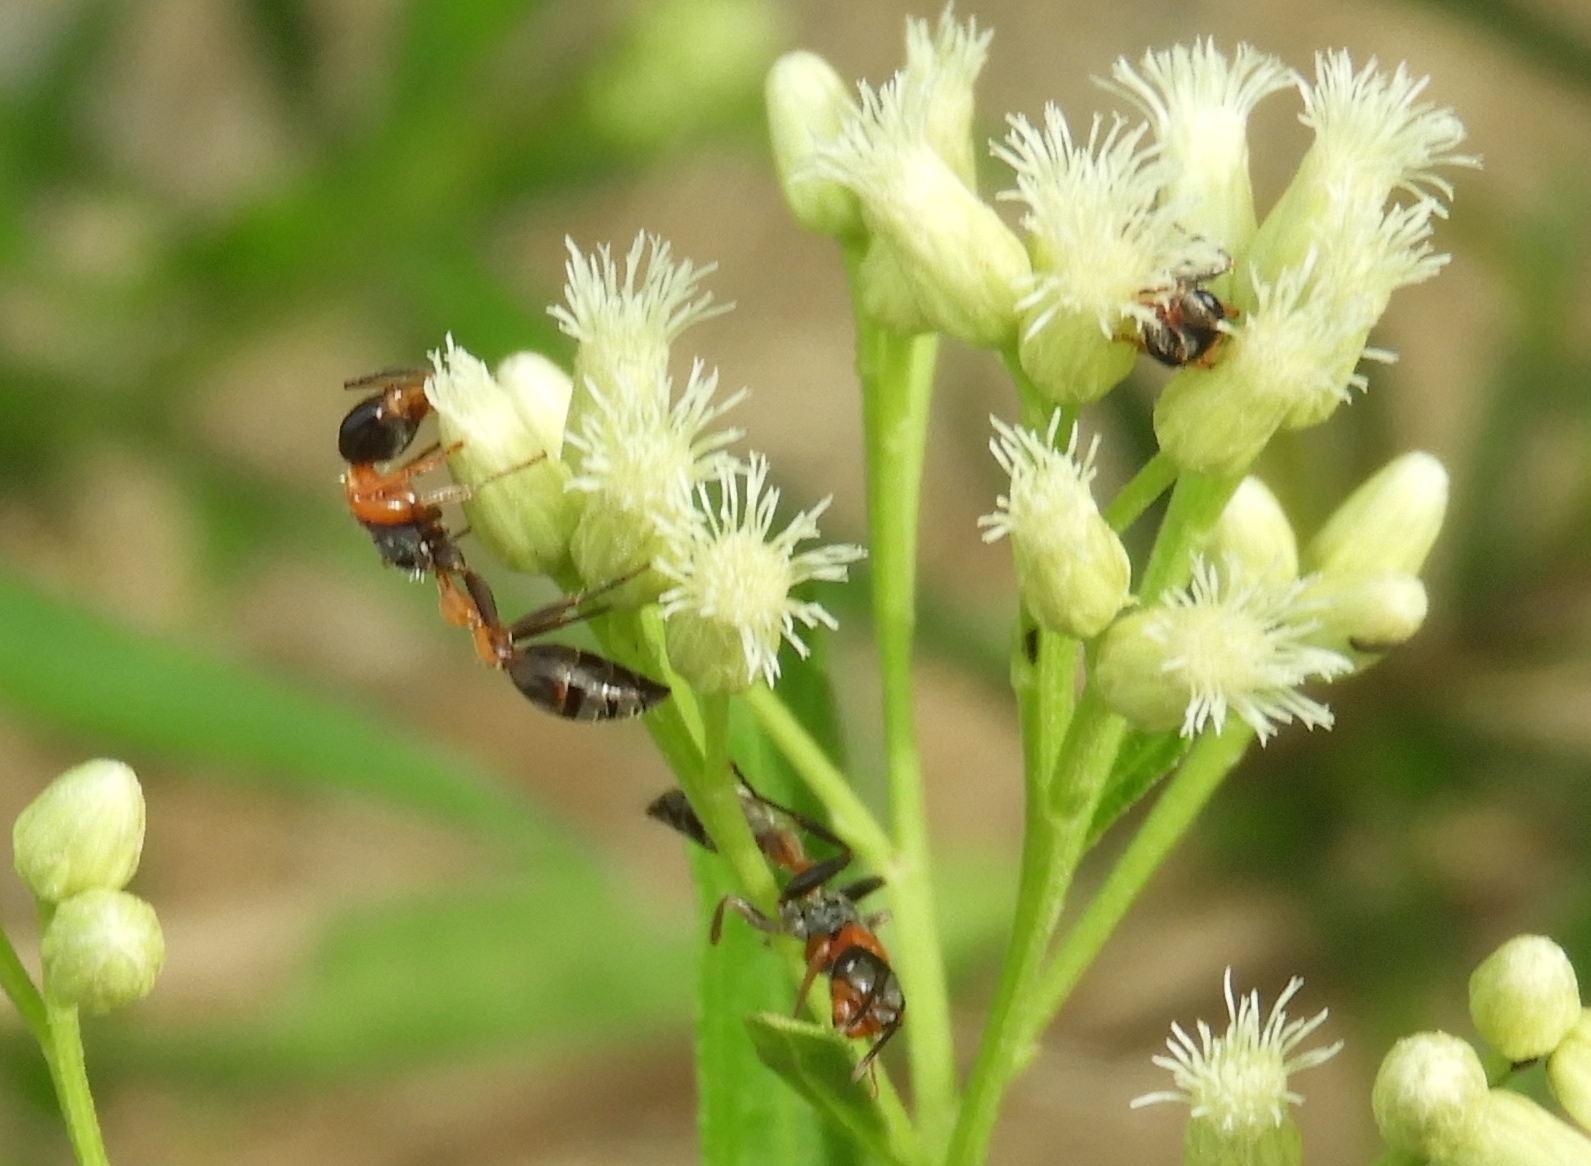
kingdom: Animalia
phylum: Arthropoda
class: Insecta
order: Hymenoptera
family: Formicidae
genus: Pseudomyrmex
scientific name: Pseudomyrmex gracilis
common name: Graceful twig ant
